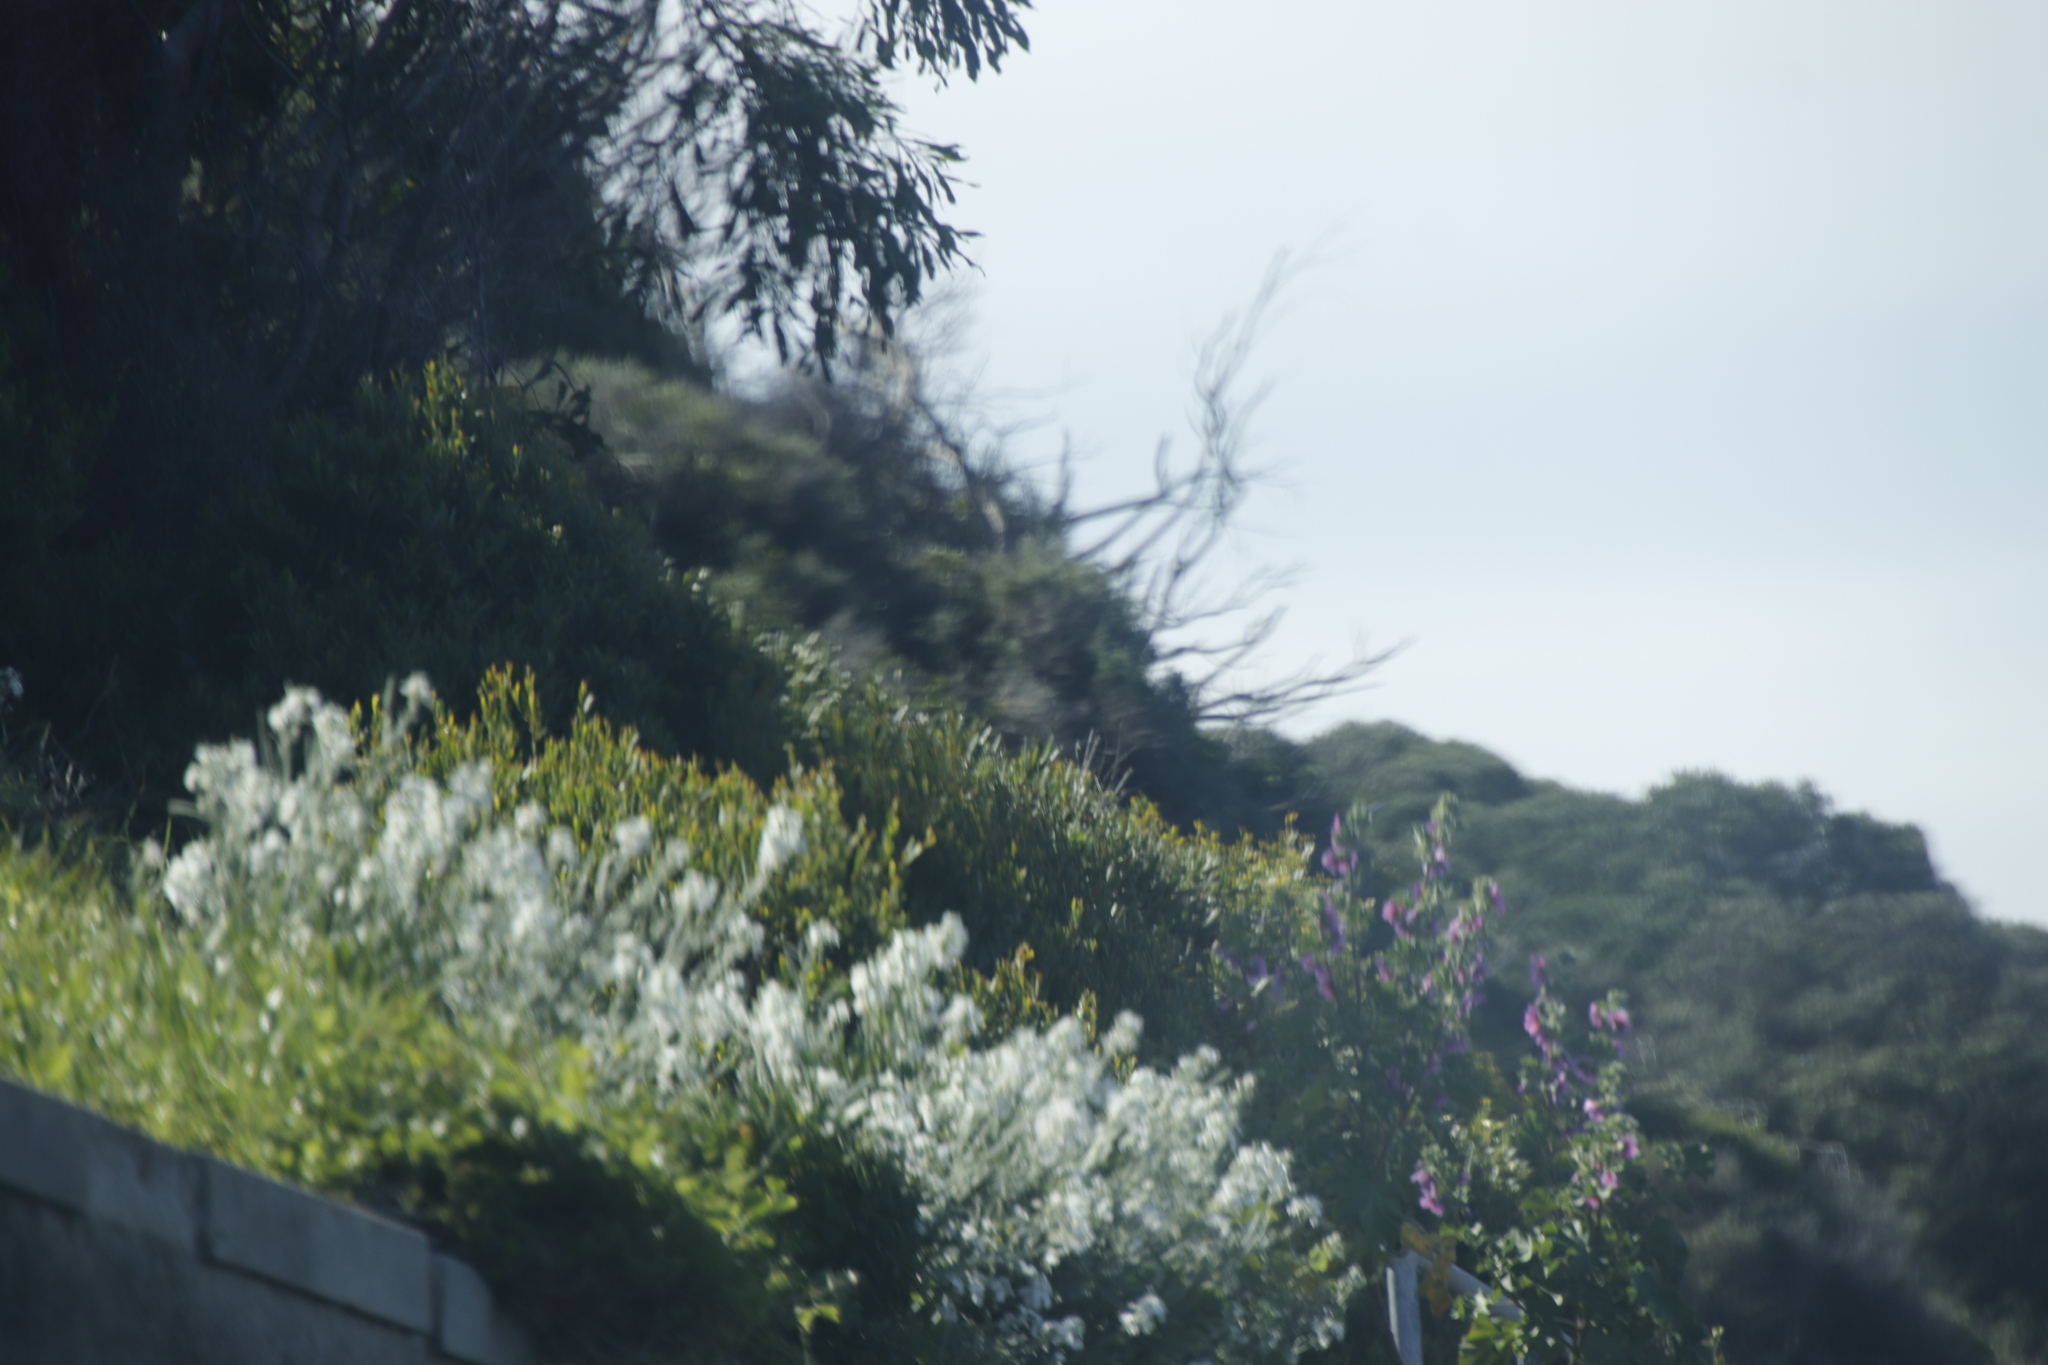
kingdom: Plantae
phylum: Tracheophyta
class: Magnoliopsida
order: Brassicales
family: Brassicaceae
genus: Matthiola
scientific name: Matthiola incana
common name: Hoary stock
